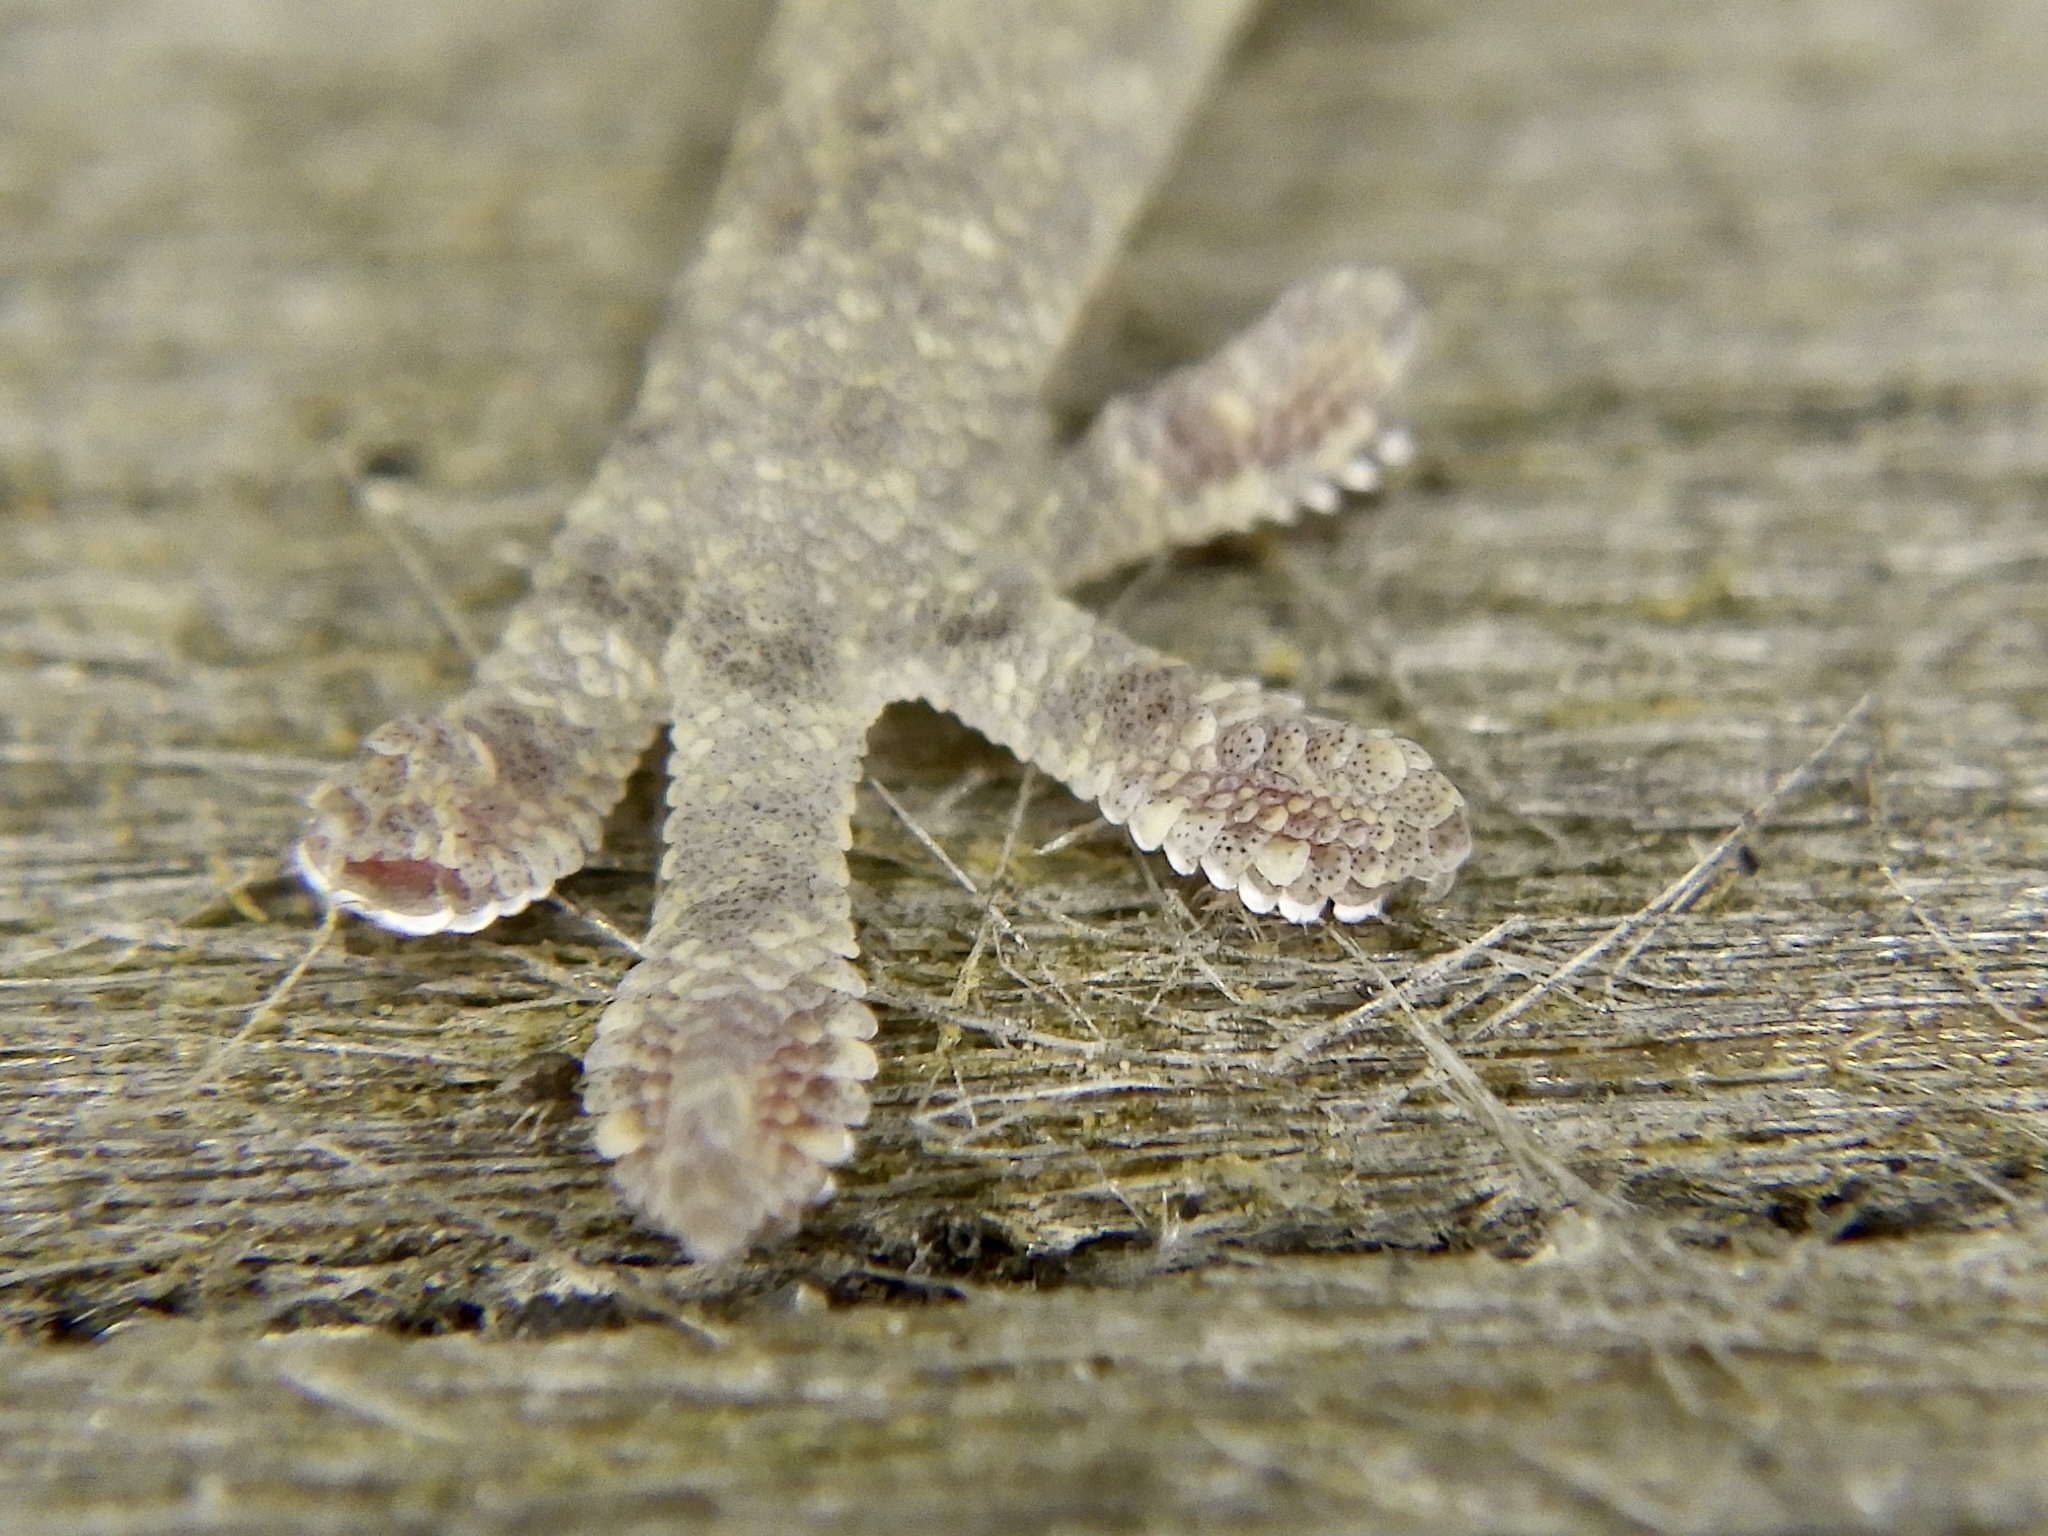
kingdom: Animalia
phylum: Chordata
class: Squamata
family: Gekkonidae
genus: Gekko
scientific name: Gekko japonicus
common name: Schlegel's japanese gecko
